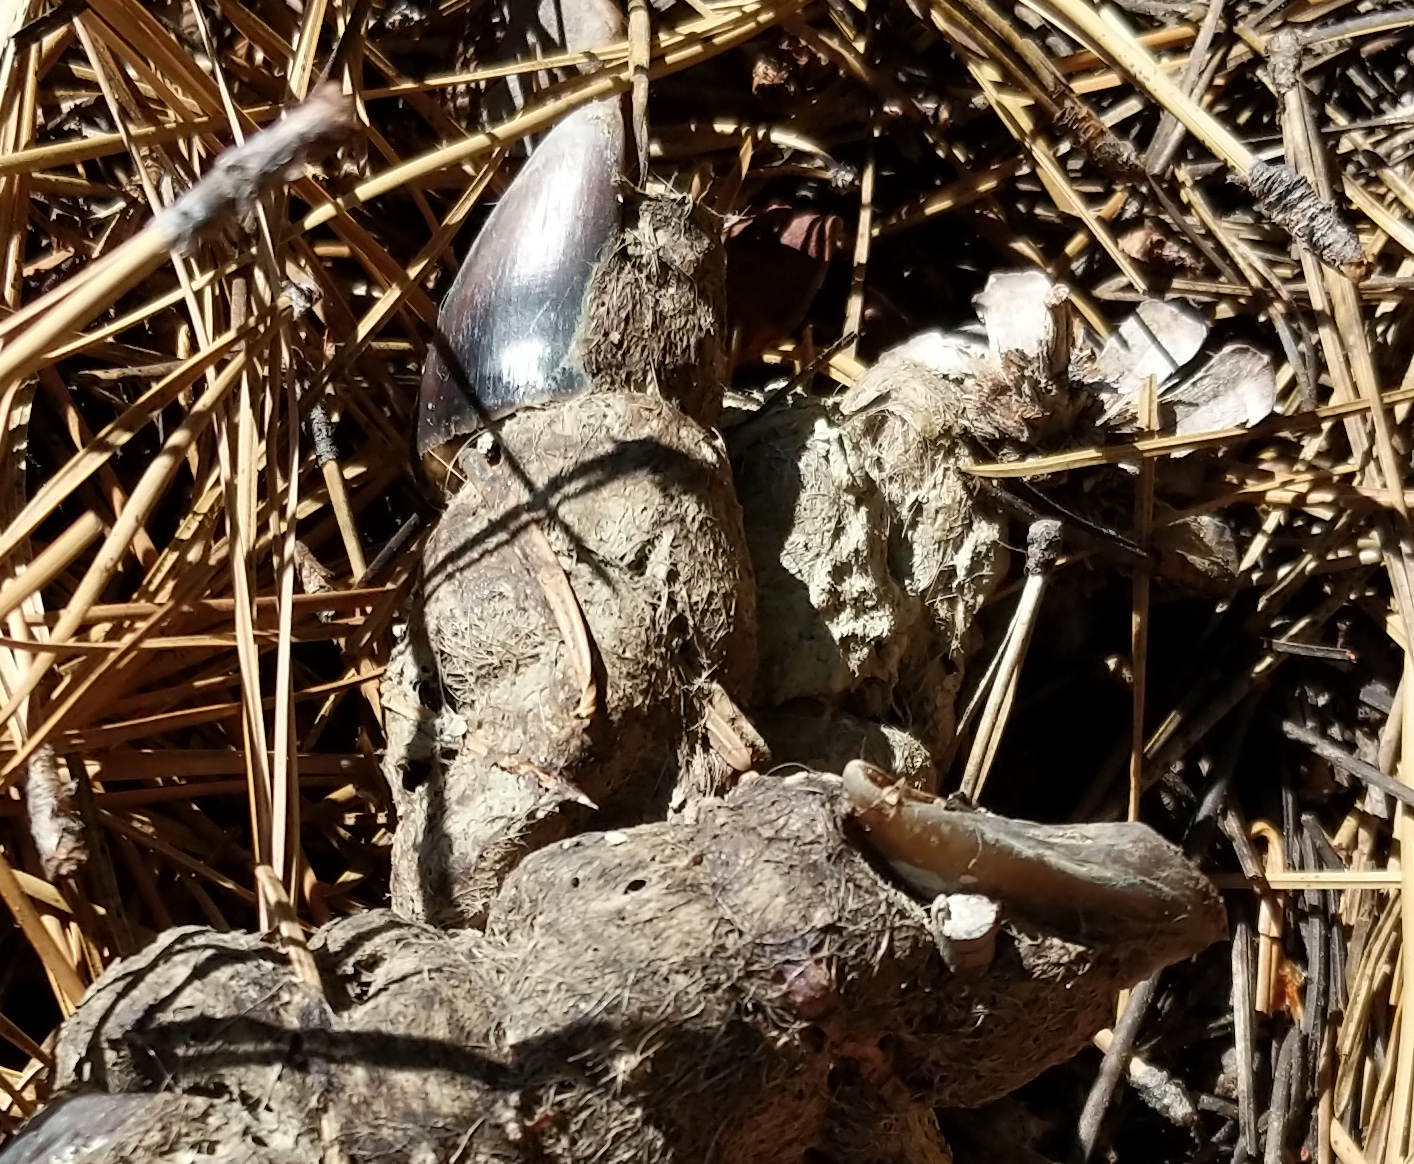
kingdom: Animalia
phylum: Chordata
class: Mammalia
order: Carnivora
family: Felidae
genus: Puma
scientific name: Puma concolor
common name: Puma
